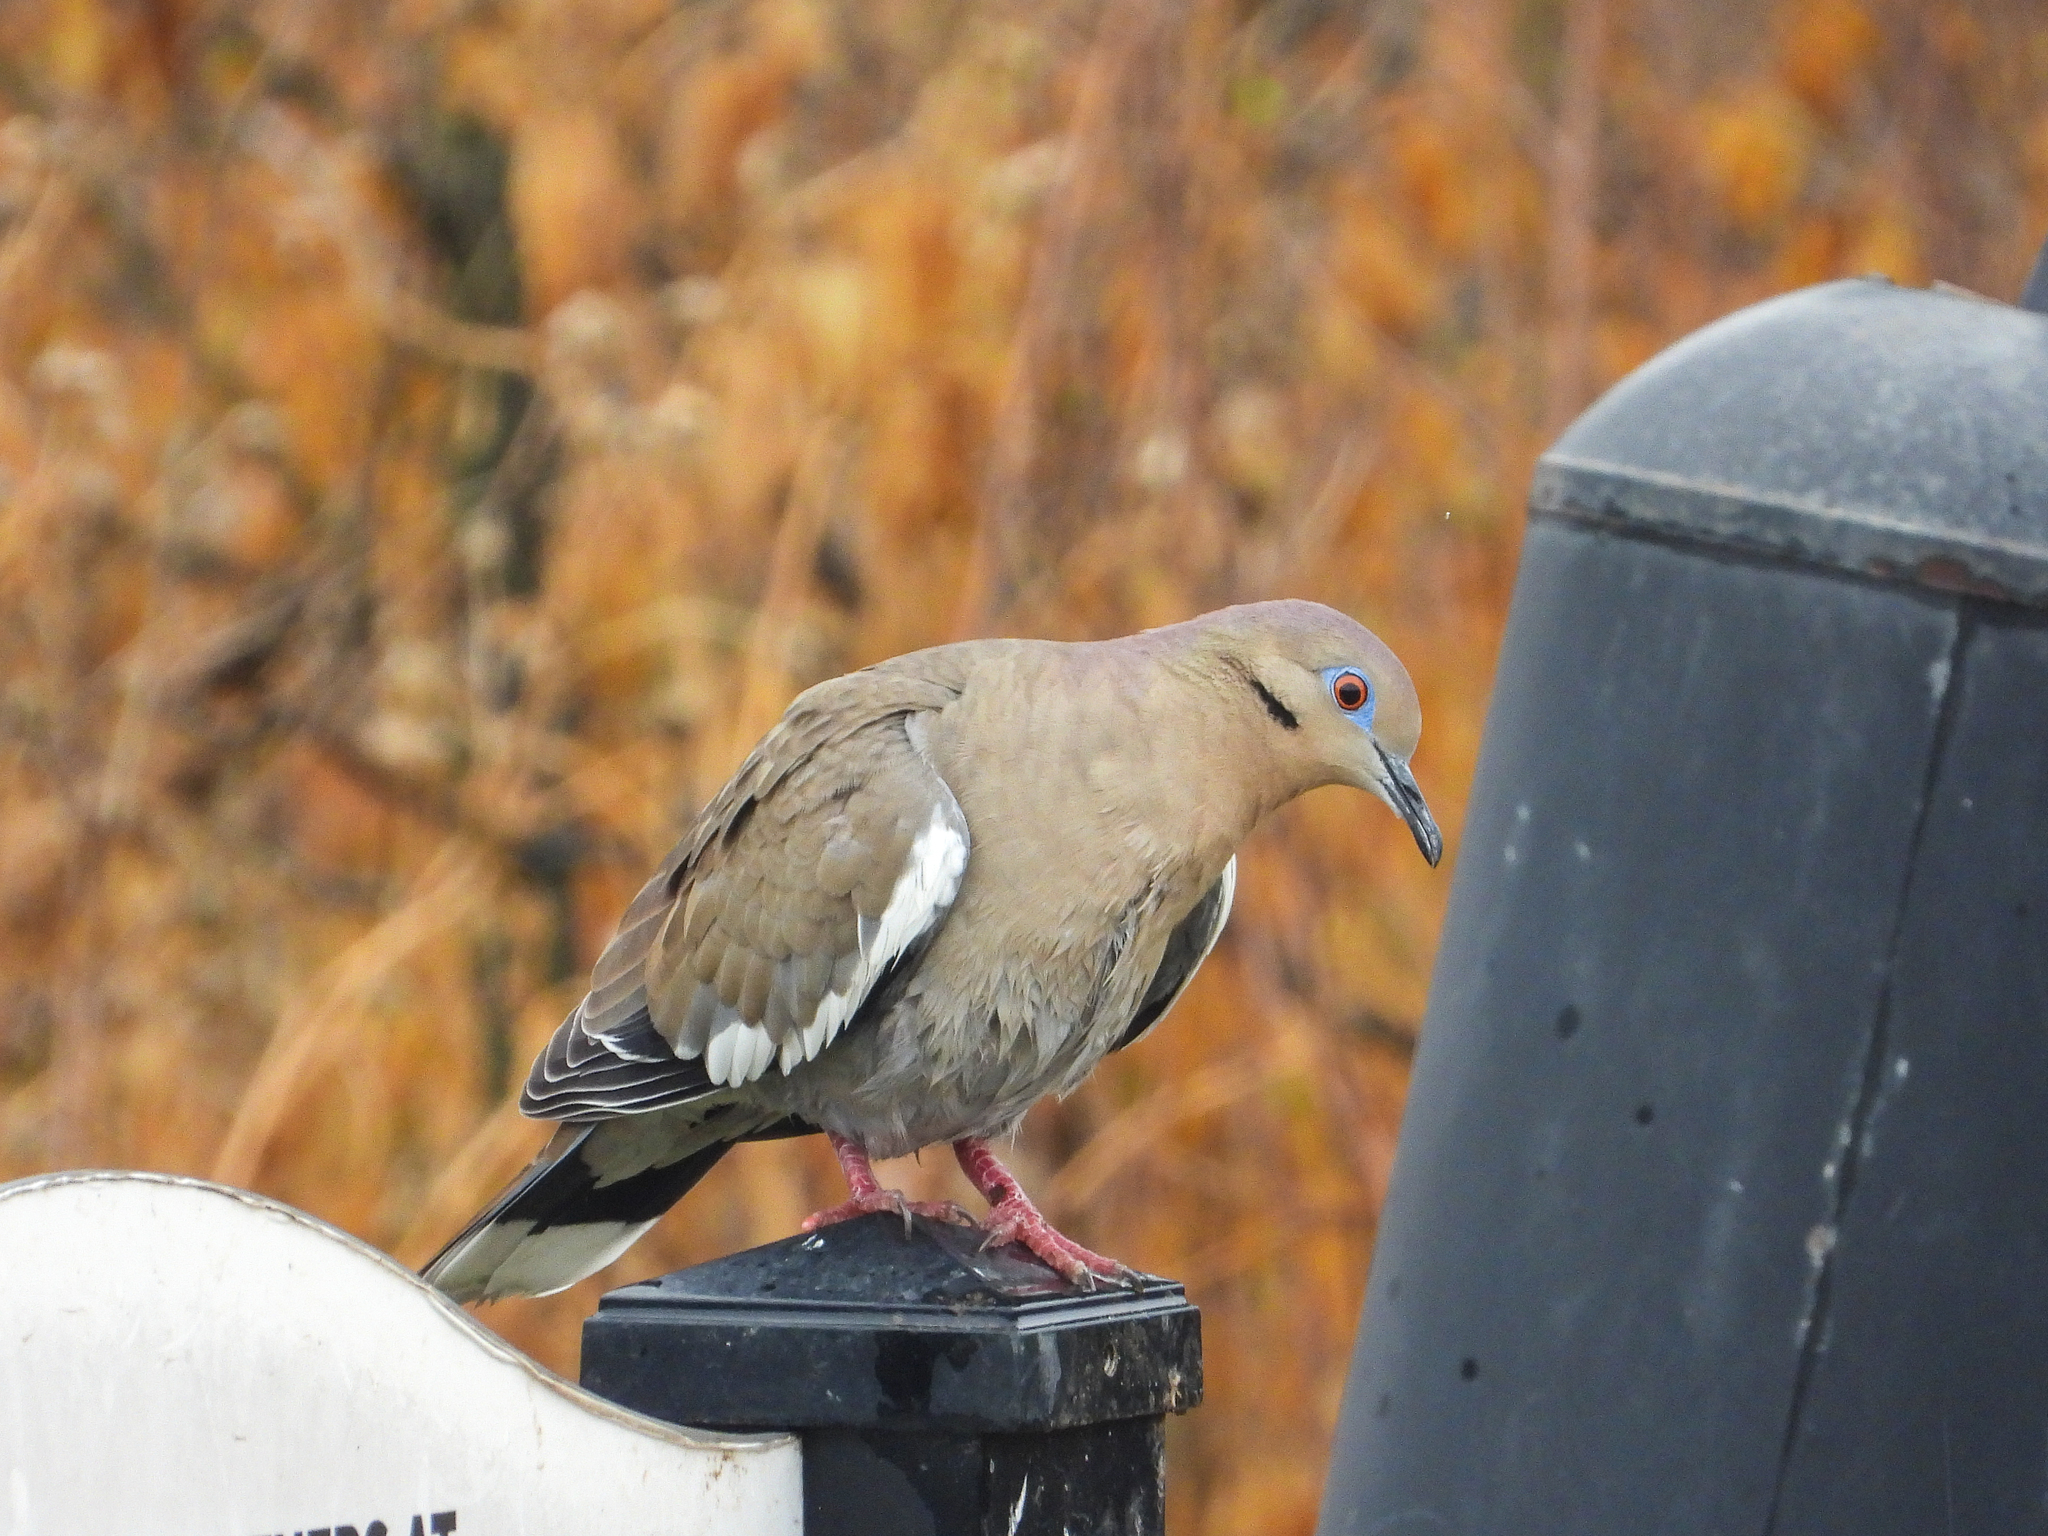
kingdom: Animalia
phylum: Chordata
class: Aves
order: Columbiformes
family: Columbidae
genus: Zenaida
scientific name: Zenaida asiatica
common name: White-winged dove
